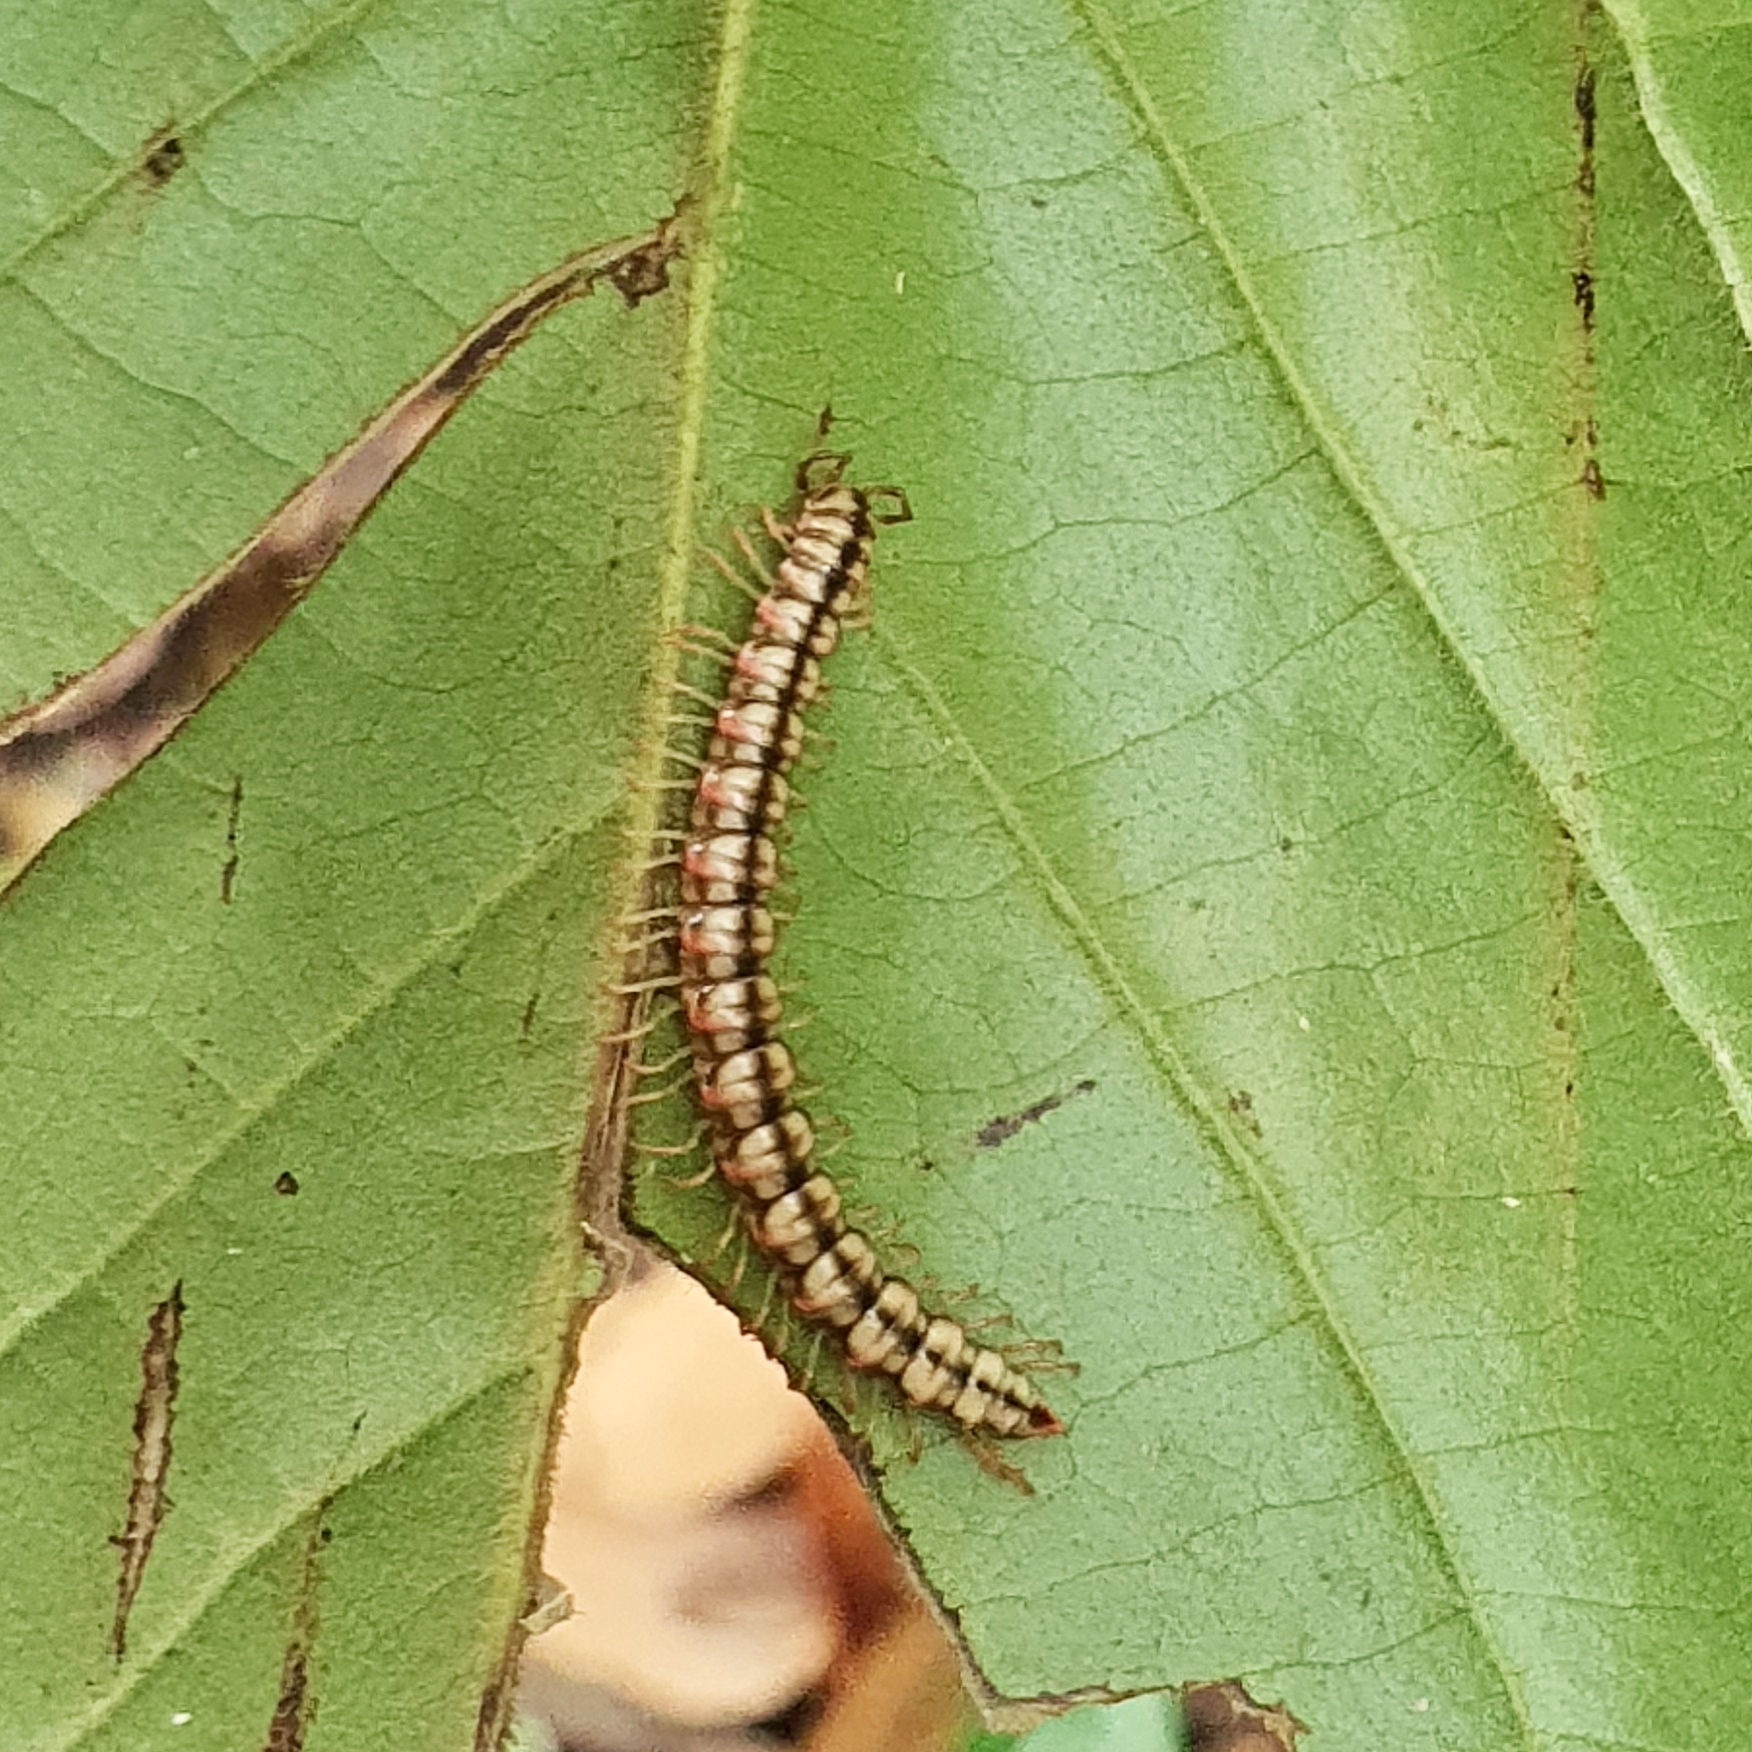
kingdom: Animalia
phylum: Arthropoda
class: Diplopoda
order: Polydesmida
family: Paradoxosomatidae
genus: Opisthodolichopus
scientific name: Opisthodolichopus scandens
